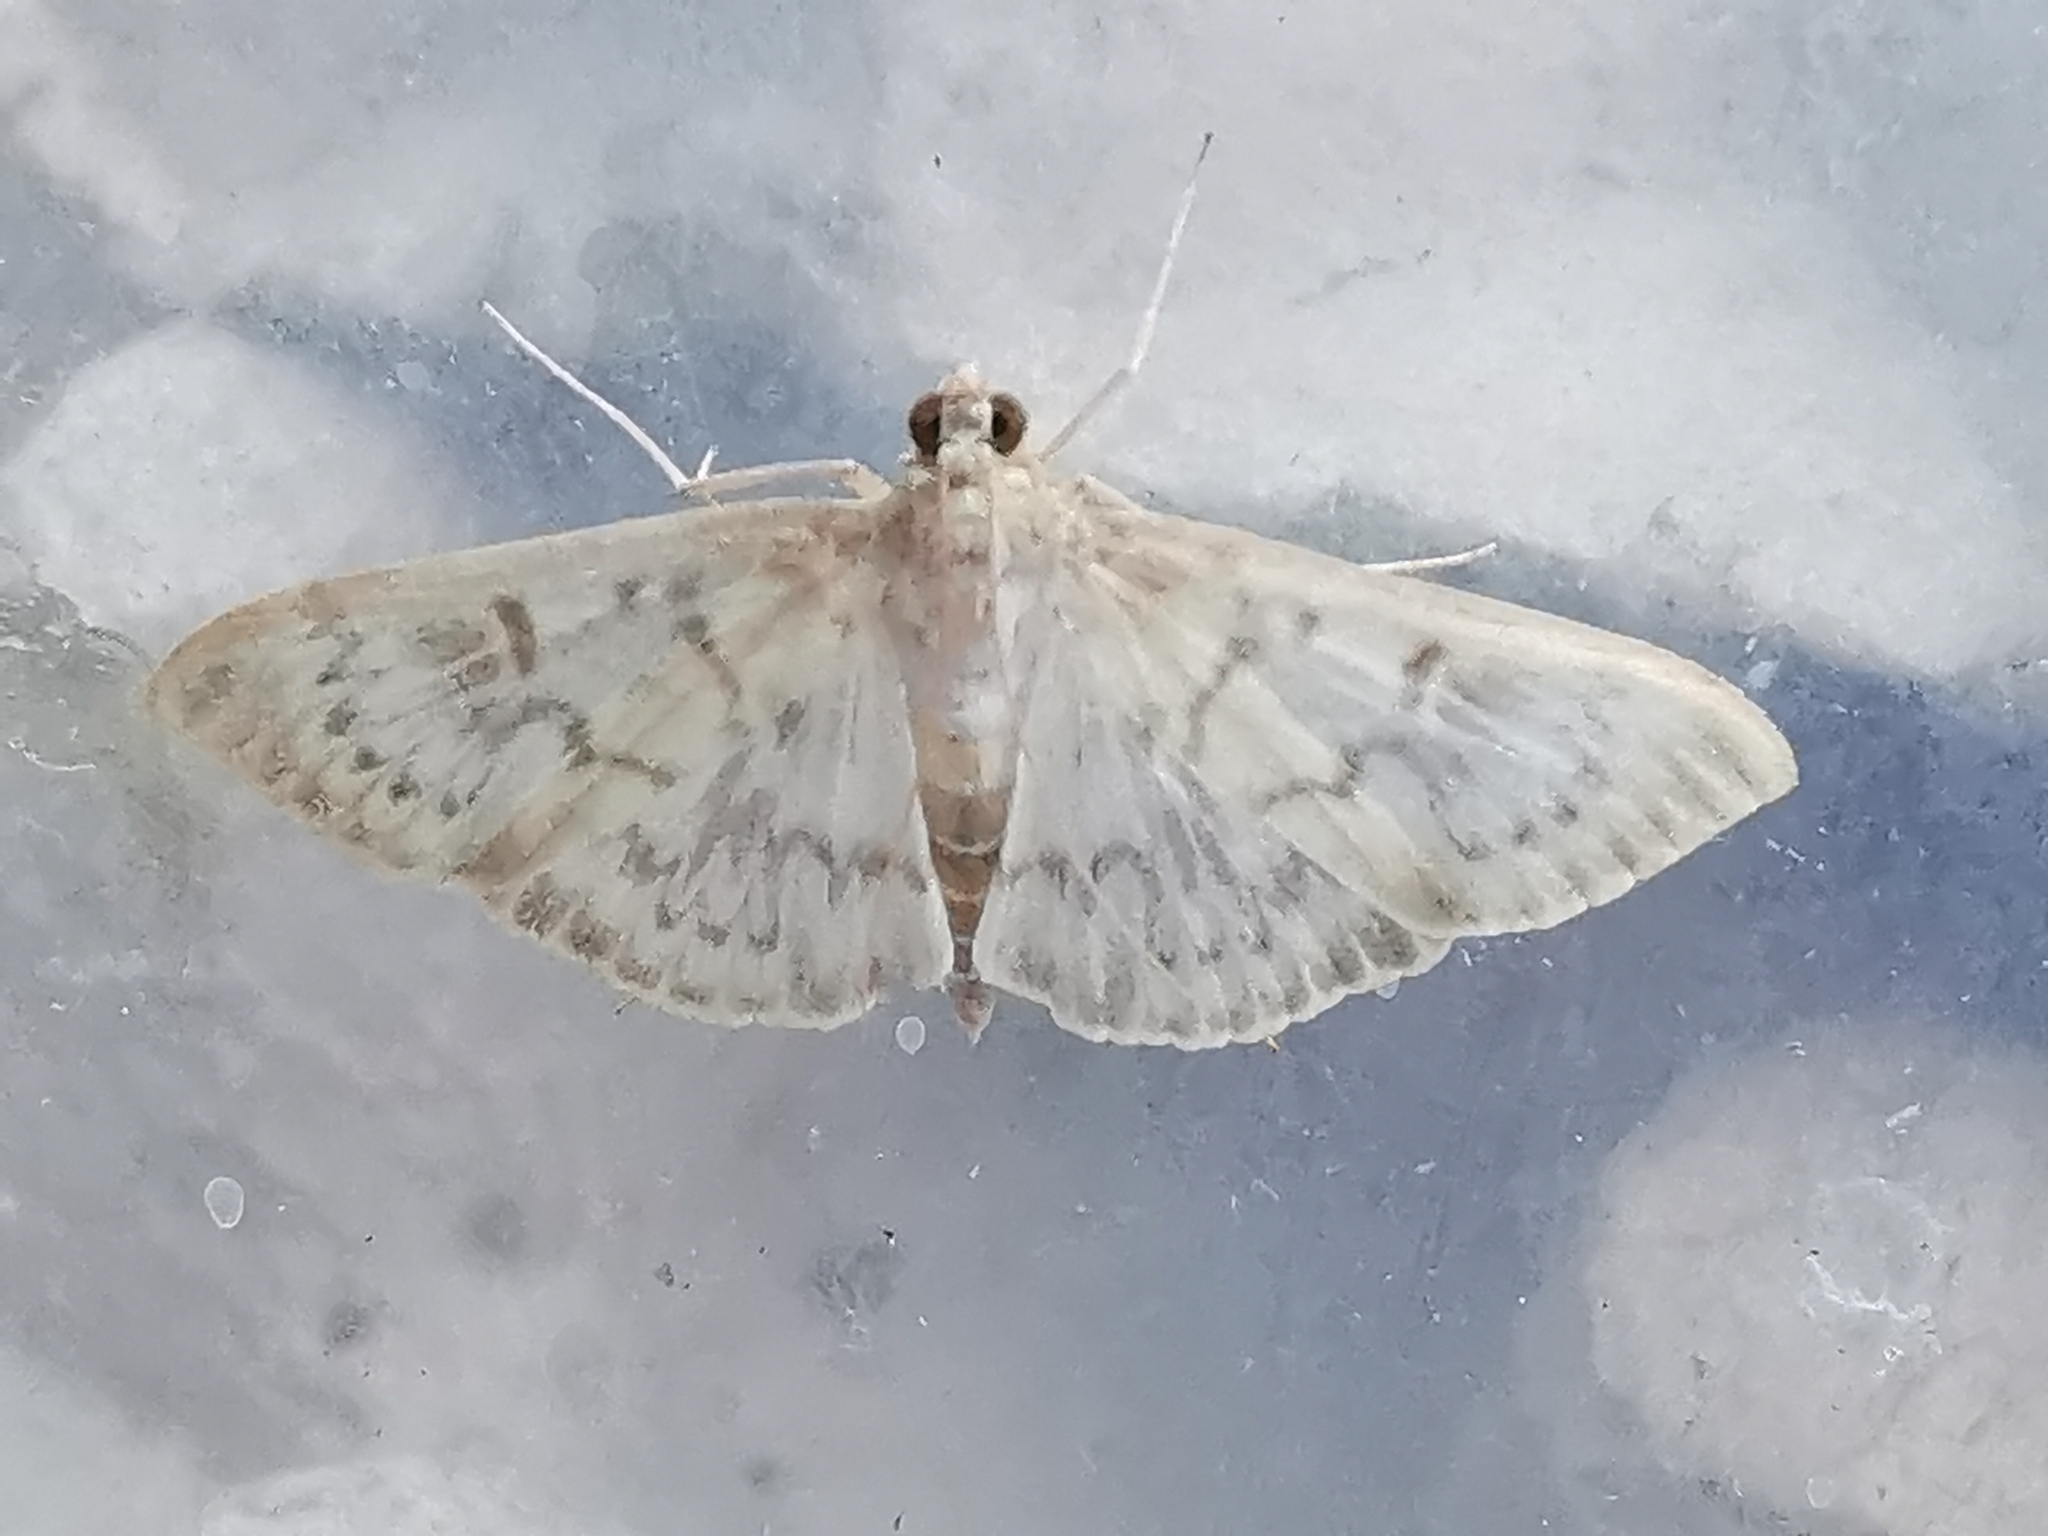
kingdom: Animalia
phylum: Arthropoda
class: Insecta
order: Lepidoptera
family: Crambidae
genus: Patania
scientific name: Patania ruralis
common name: Mother of pearl
